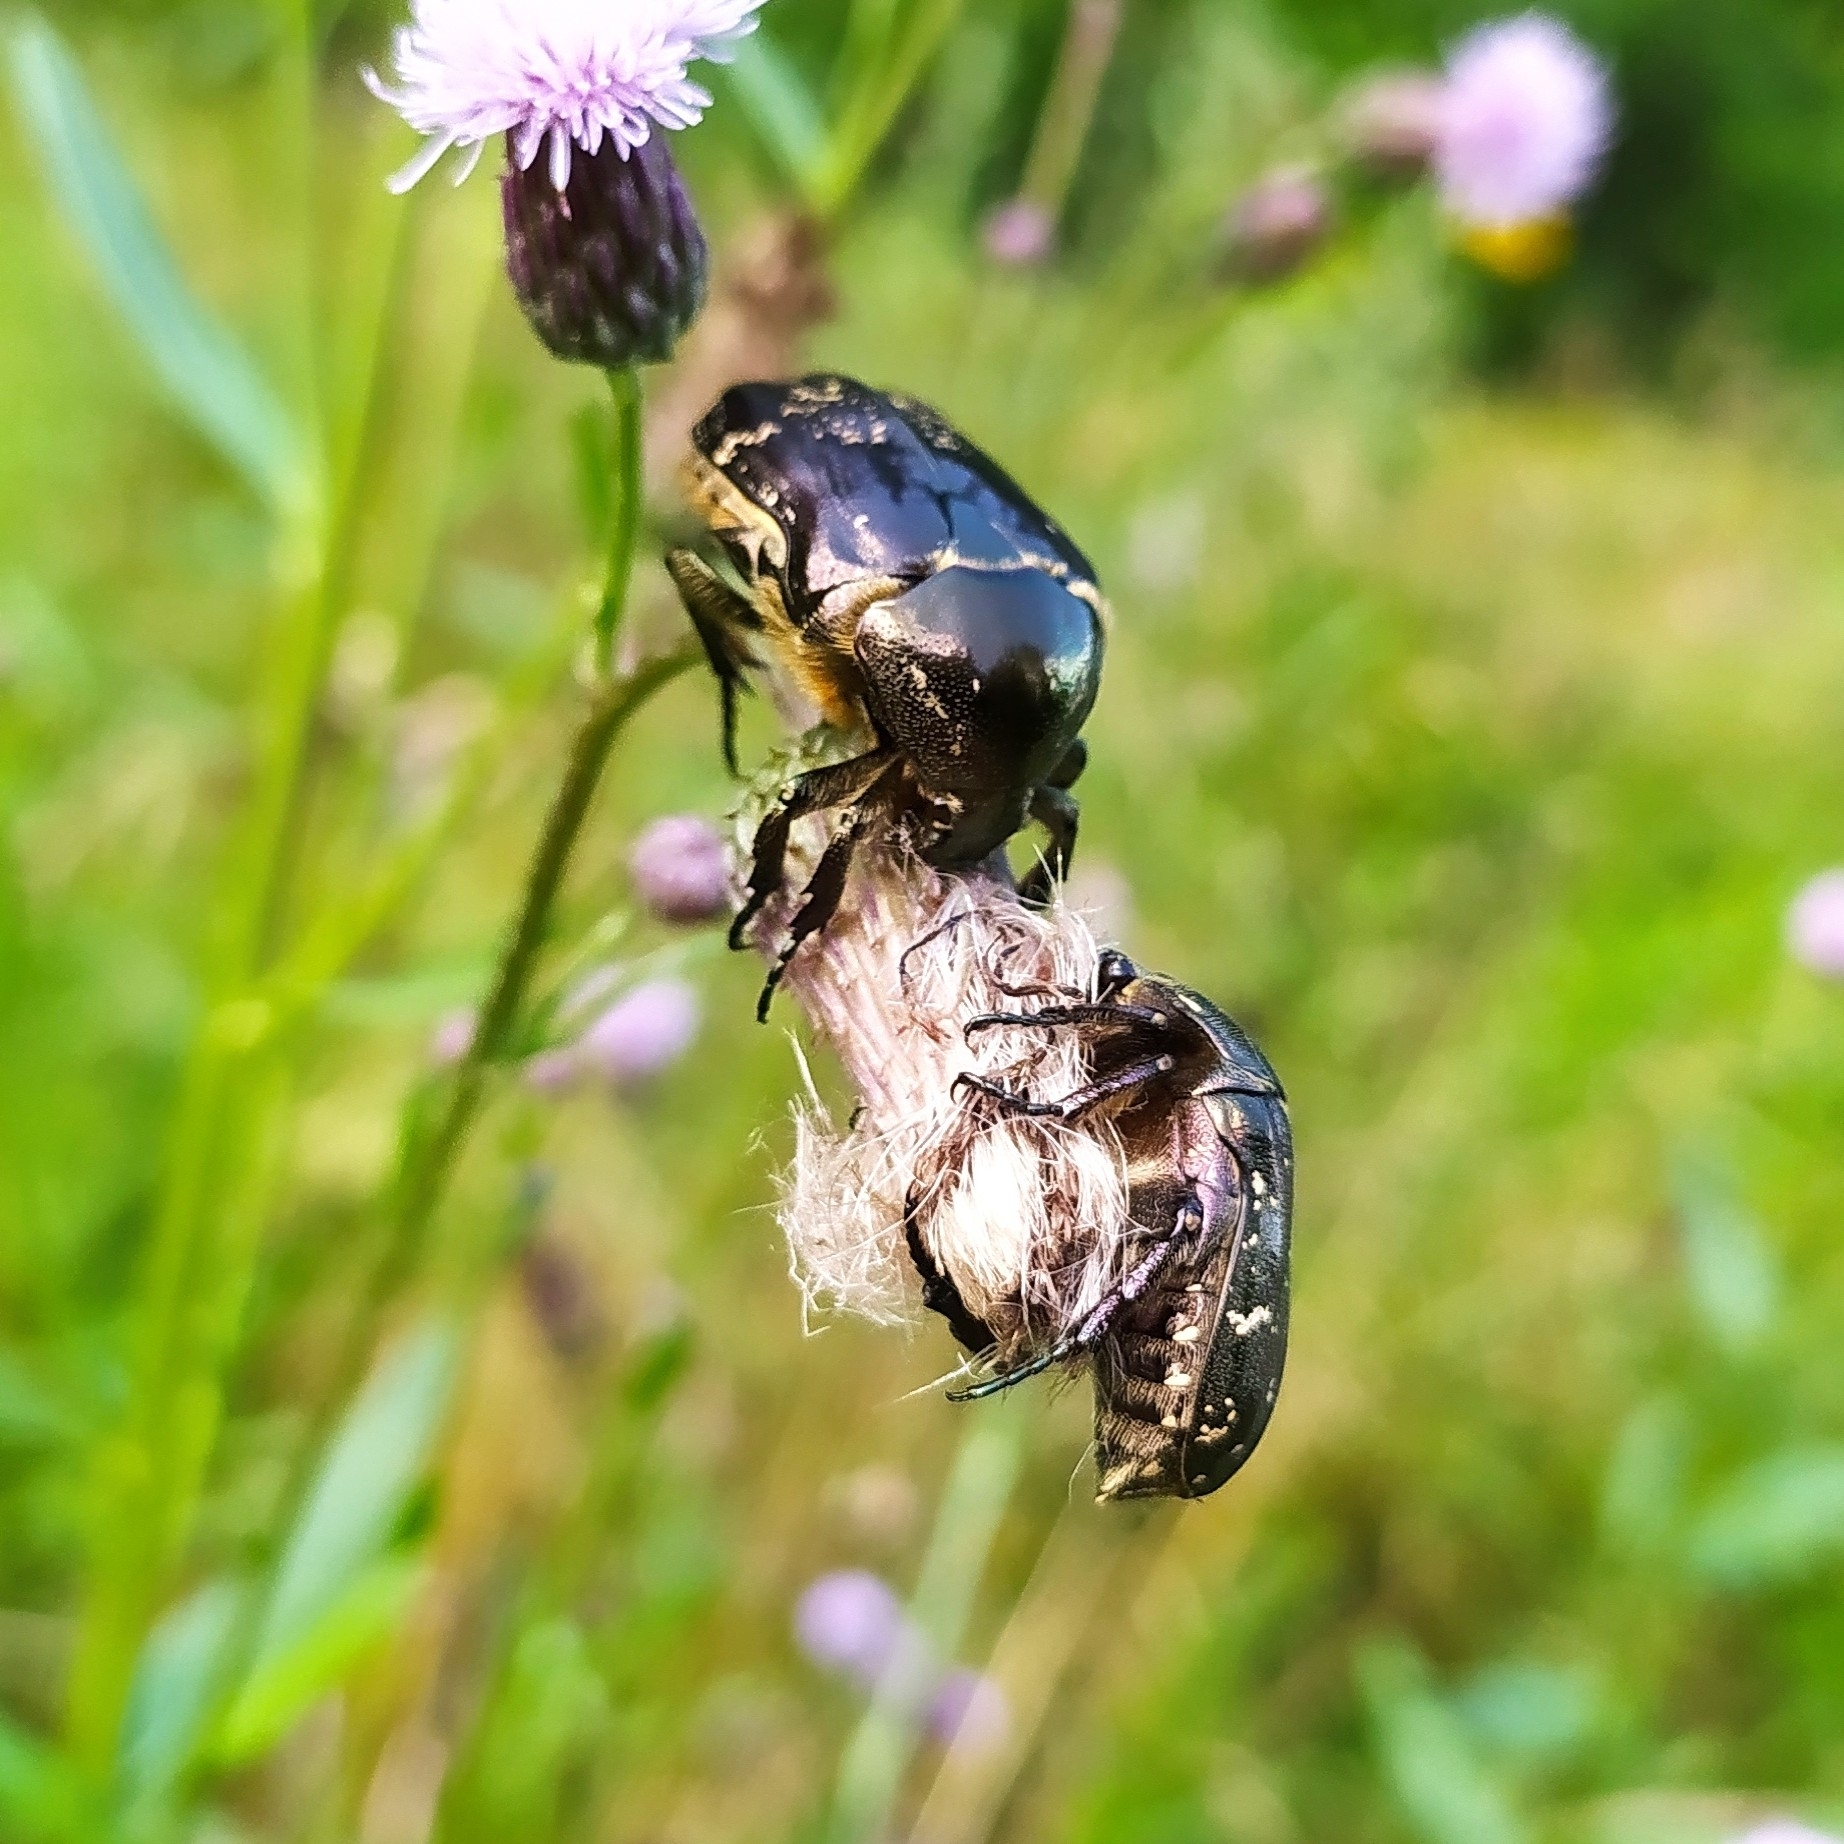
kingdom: Animalia
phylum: Arthropoda
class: Insecta
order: Coleoptera
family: Scarabaeidae
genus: Protaetia
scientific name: Protaetia cuprea
